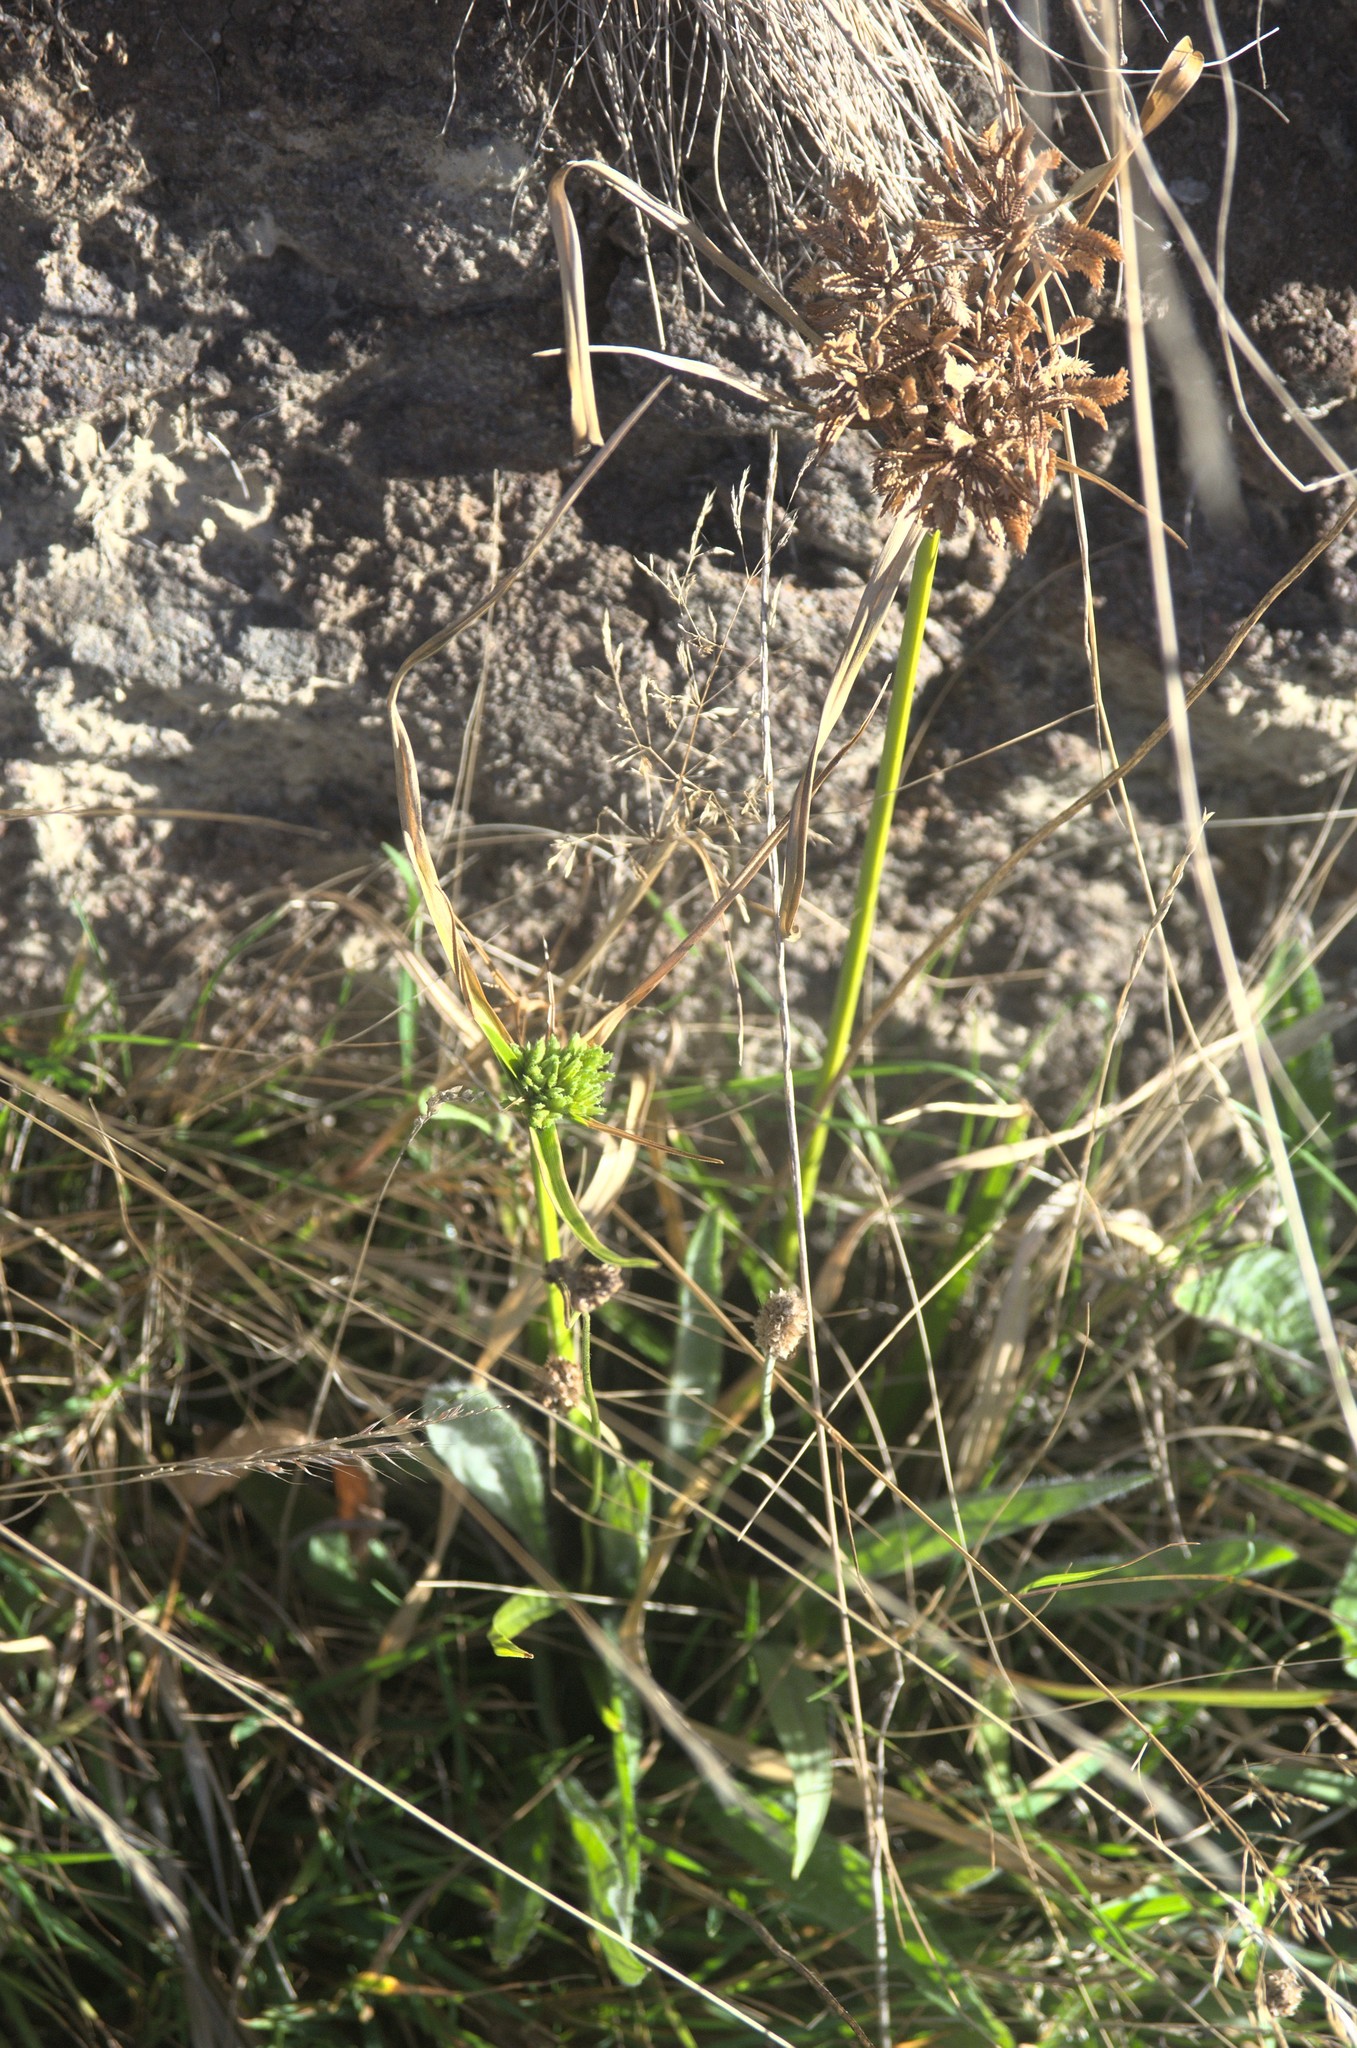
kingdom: Plantae
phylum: Tracheophyta
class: Liliopsida
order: Poales
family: Cyperaceae
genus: Cyperus
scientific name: Cyperus eragrostis
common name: Tall flatsedge
